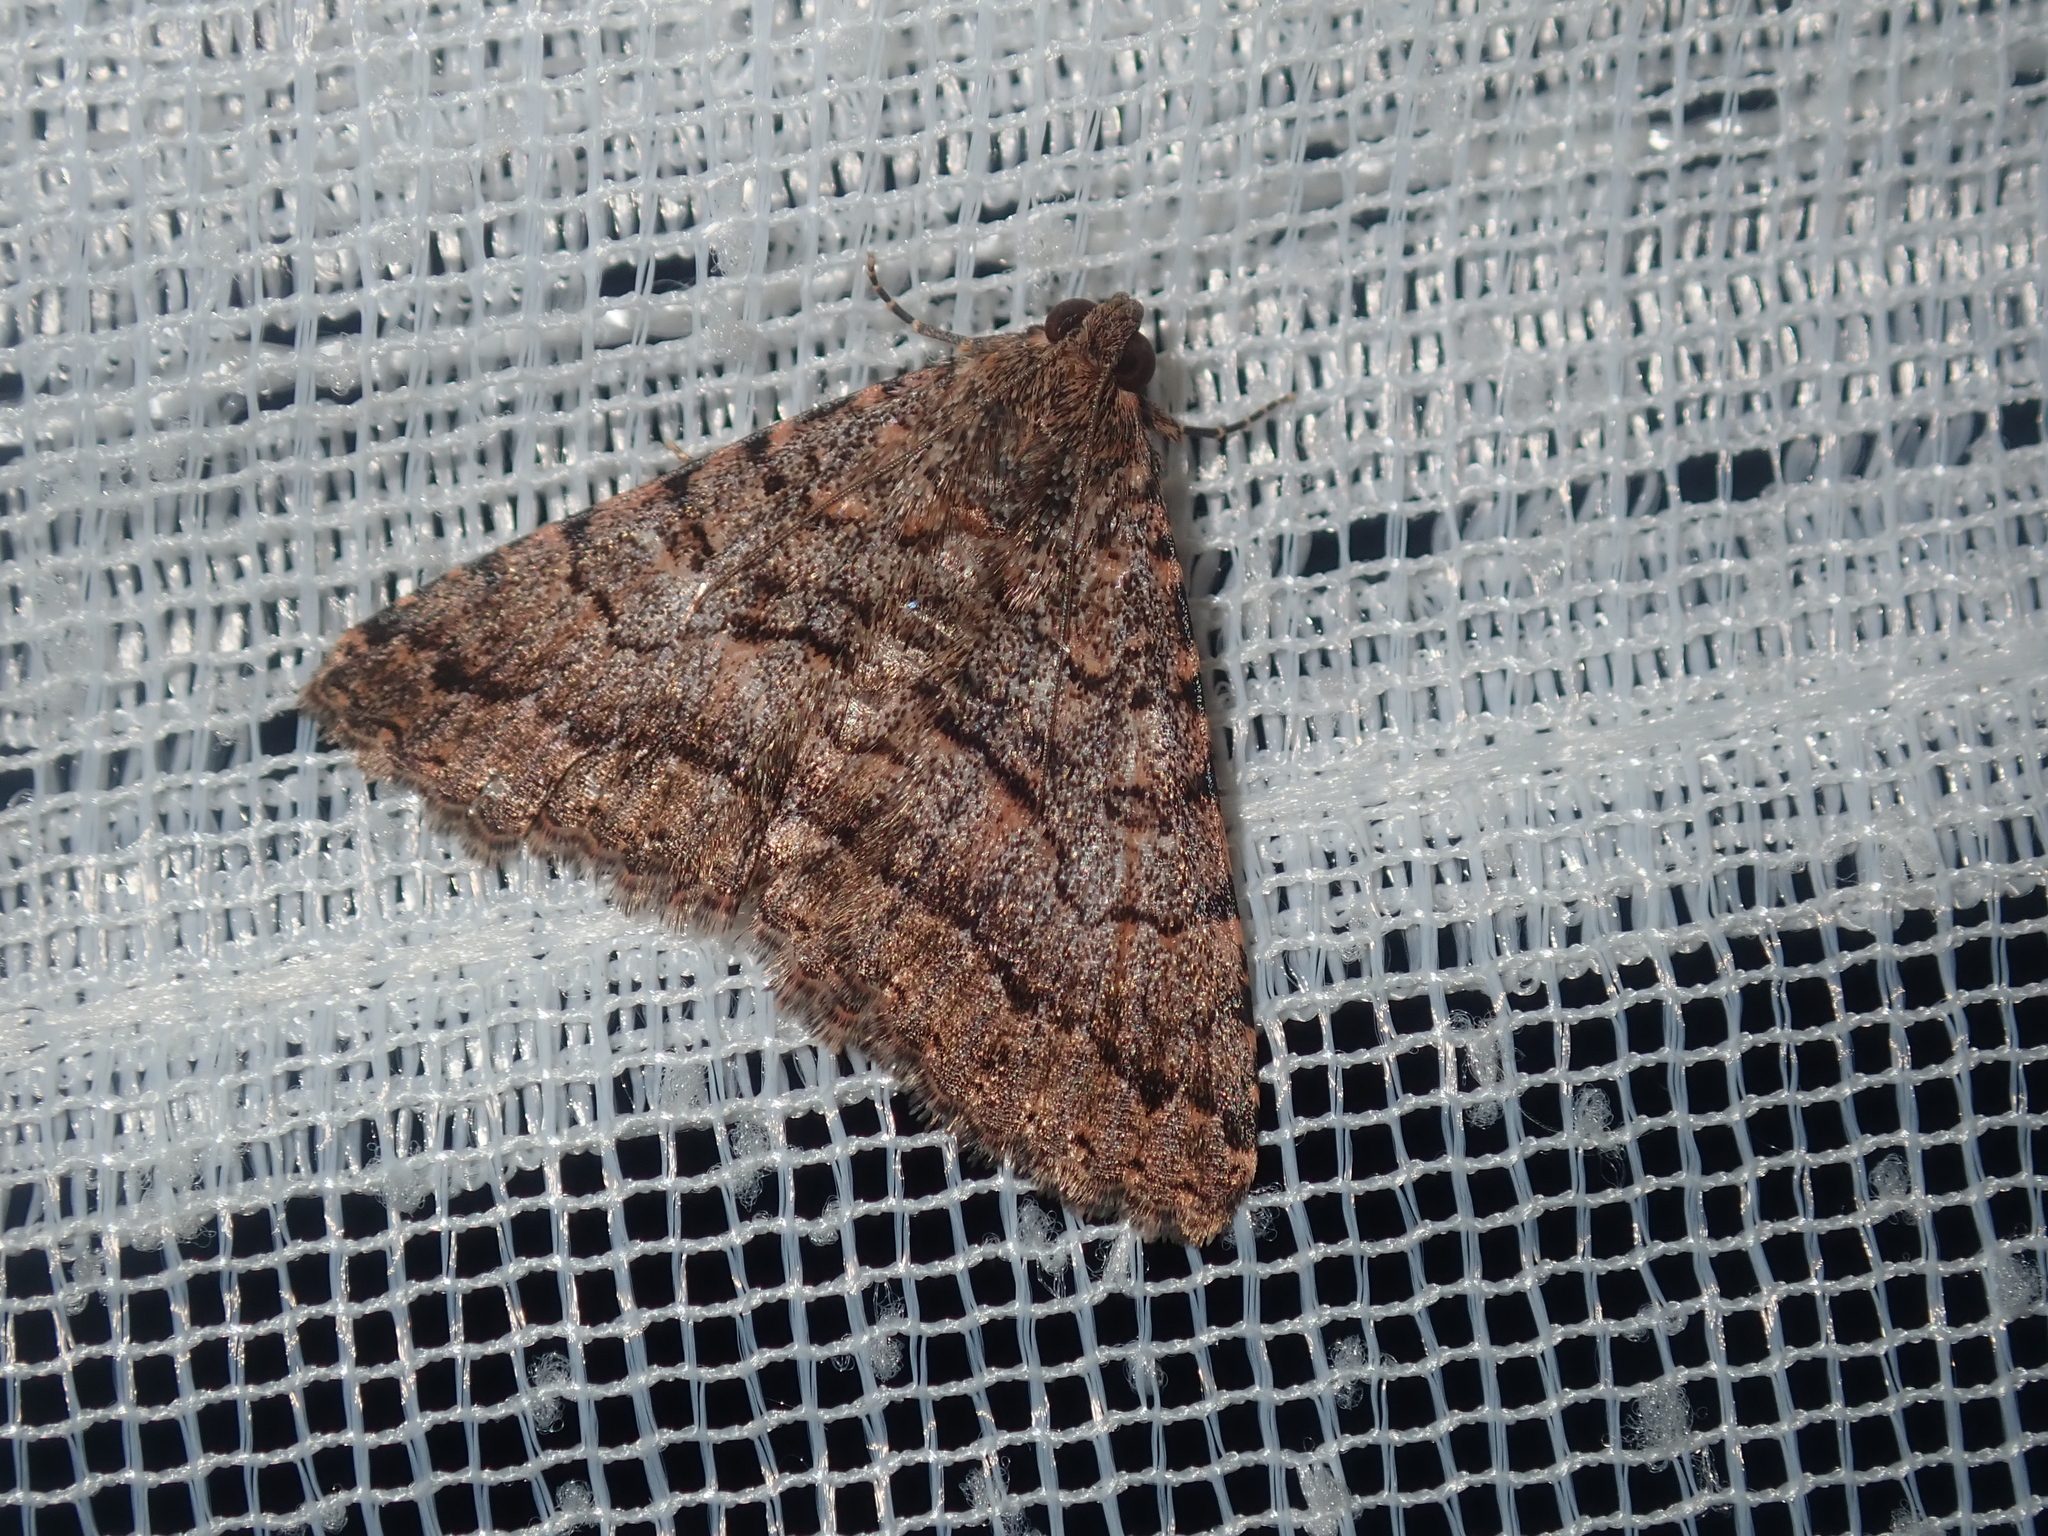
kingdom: Animalia
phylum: Arthropoda
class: Insecta
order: Lepidoptera
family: Erebidae
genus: Diatenes
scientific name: Diatenes igneipicta
